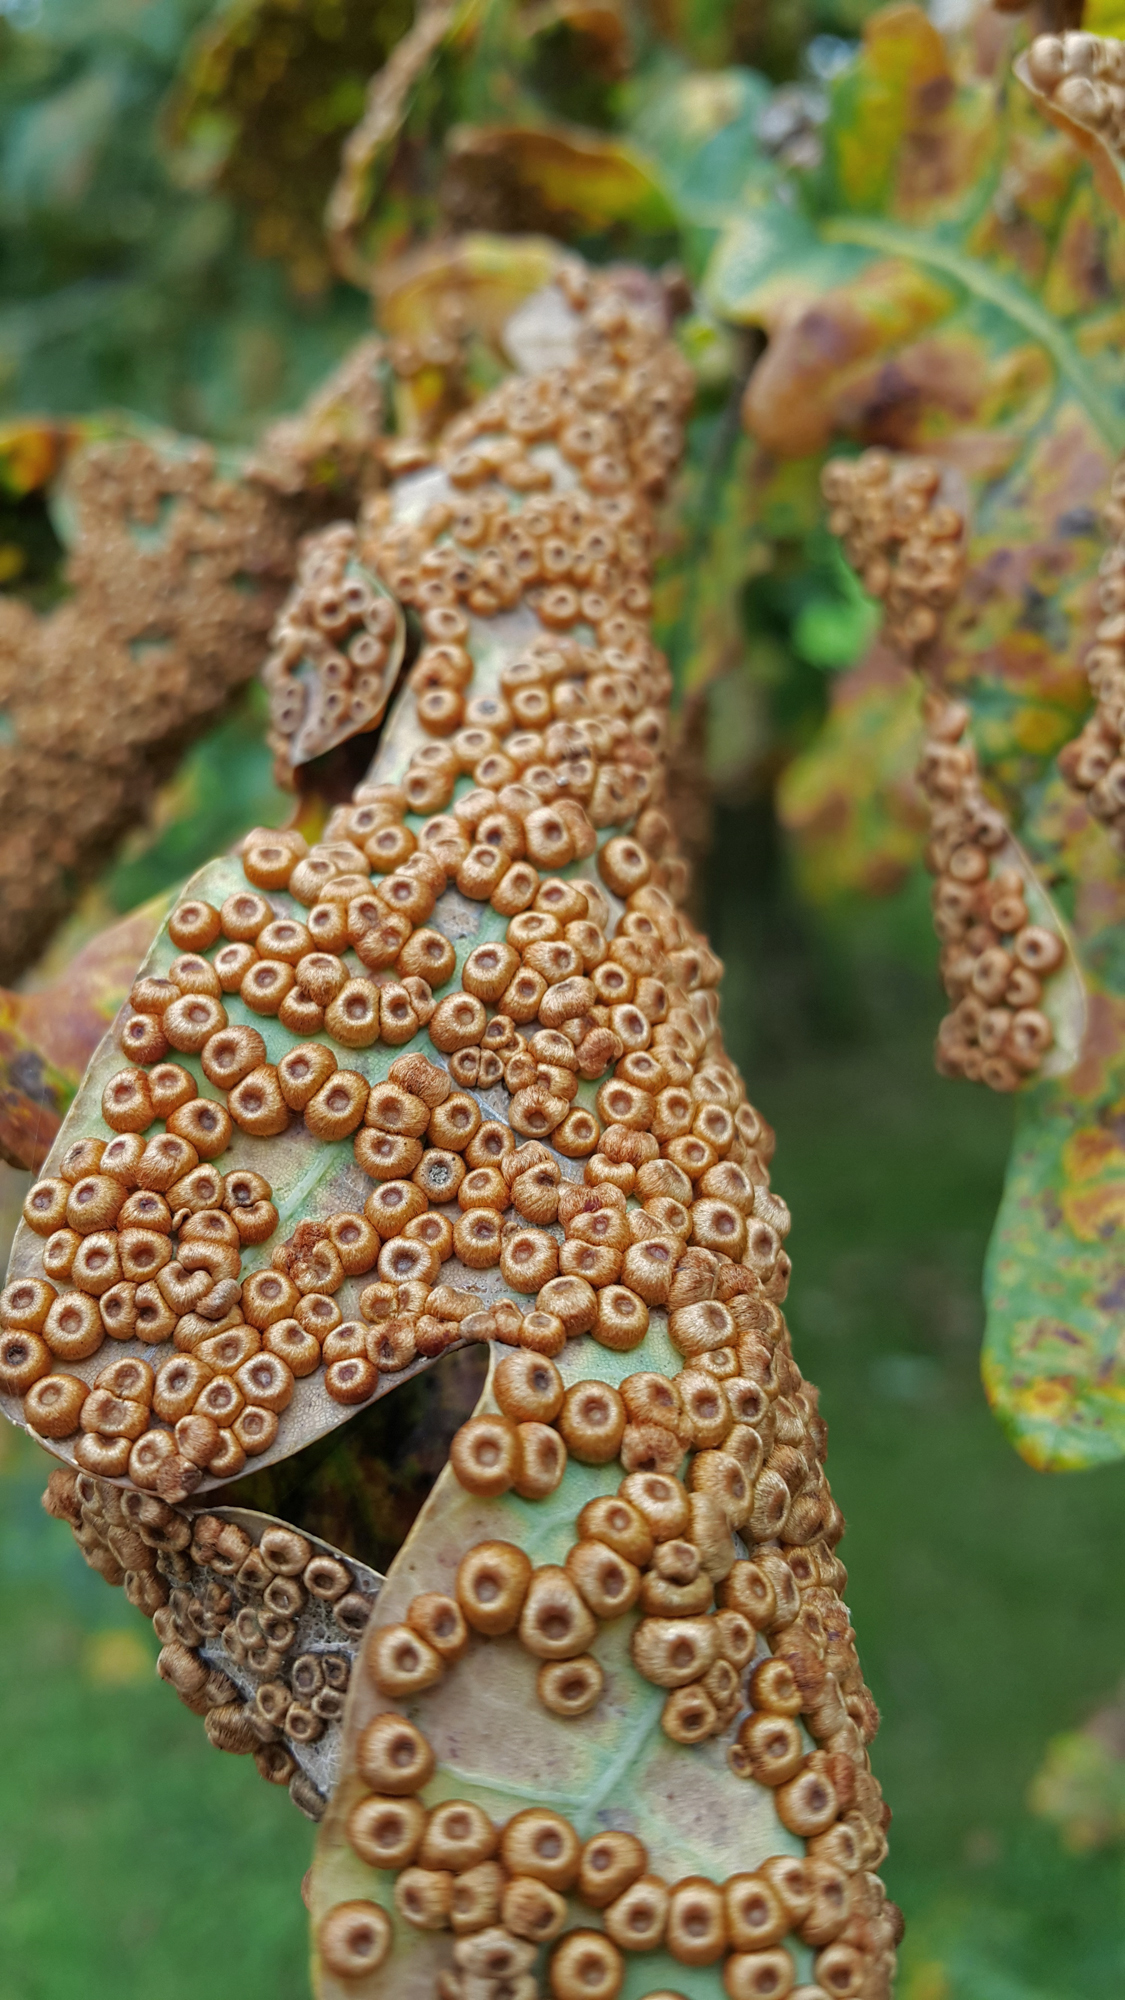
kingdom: Animalia
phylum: Arthropoda
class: Insecta
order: Hymenoptera
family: Cynipidae
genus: Neuroterus
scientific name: Neuroterus numismalis
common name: Silk-button spangle gall
